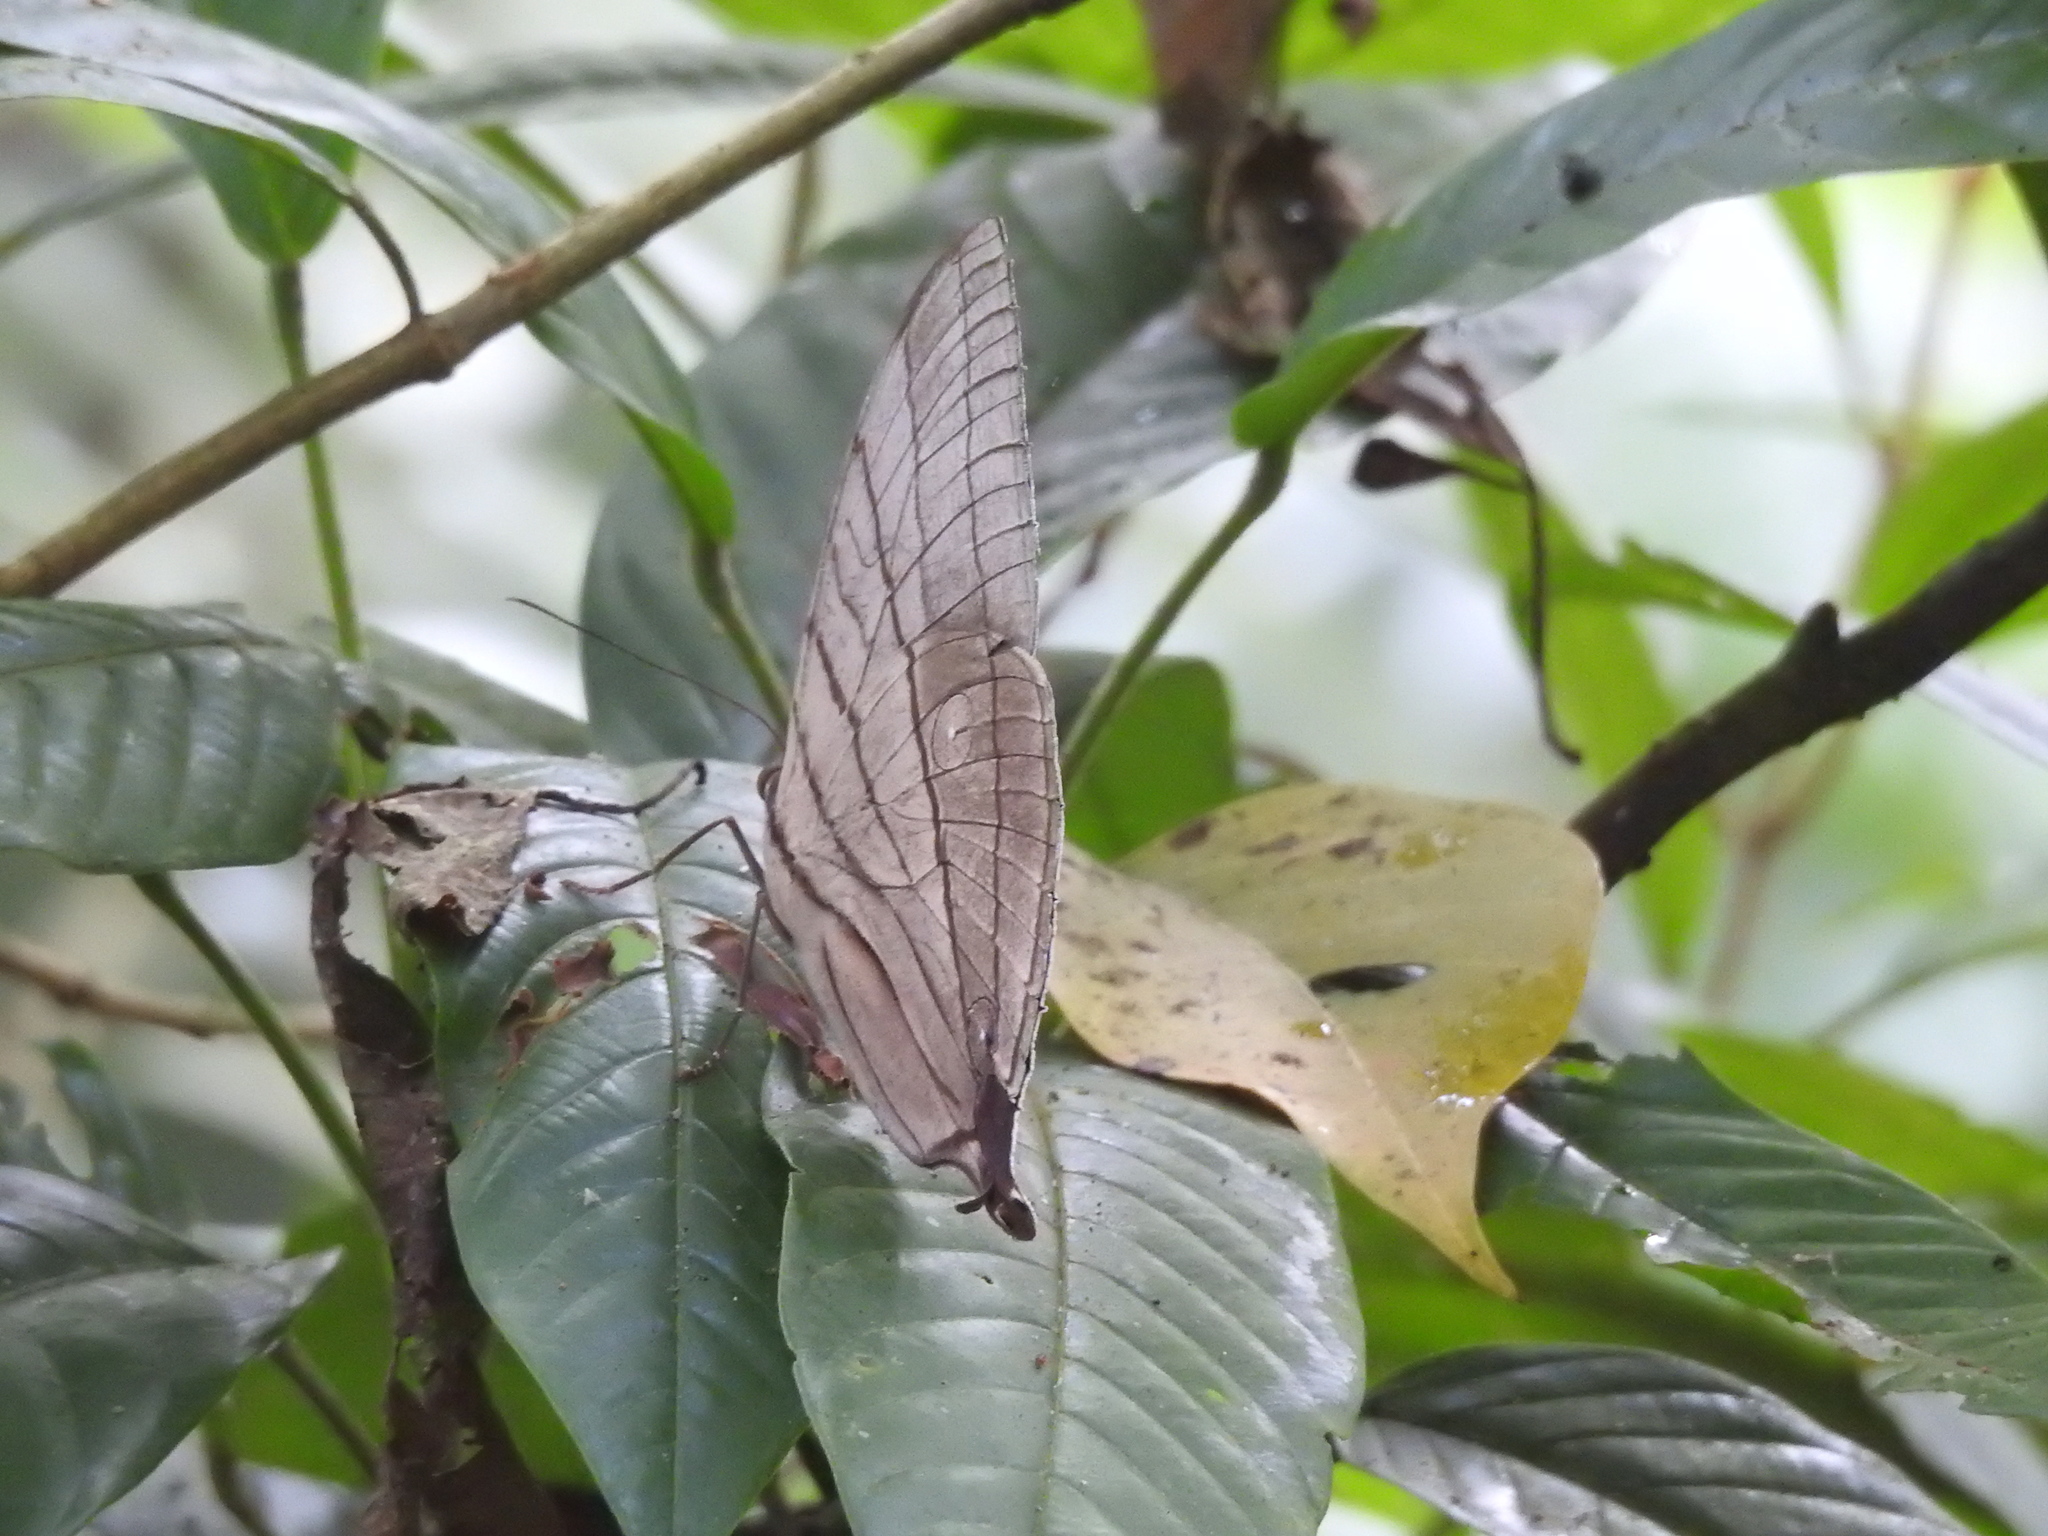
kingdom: Animalia
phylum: Arthropoda
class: Insecta
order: Lepidoptera
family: Nymphalidae
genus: Amathuxidia
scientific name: Amathuxidia amythaon
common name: Koh-i-noor
